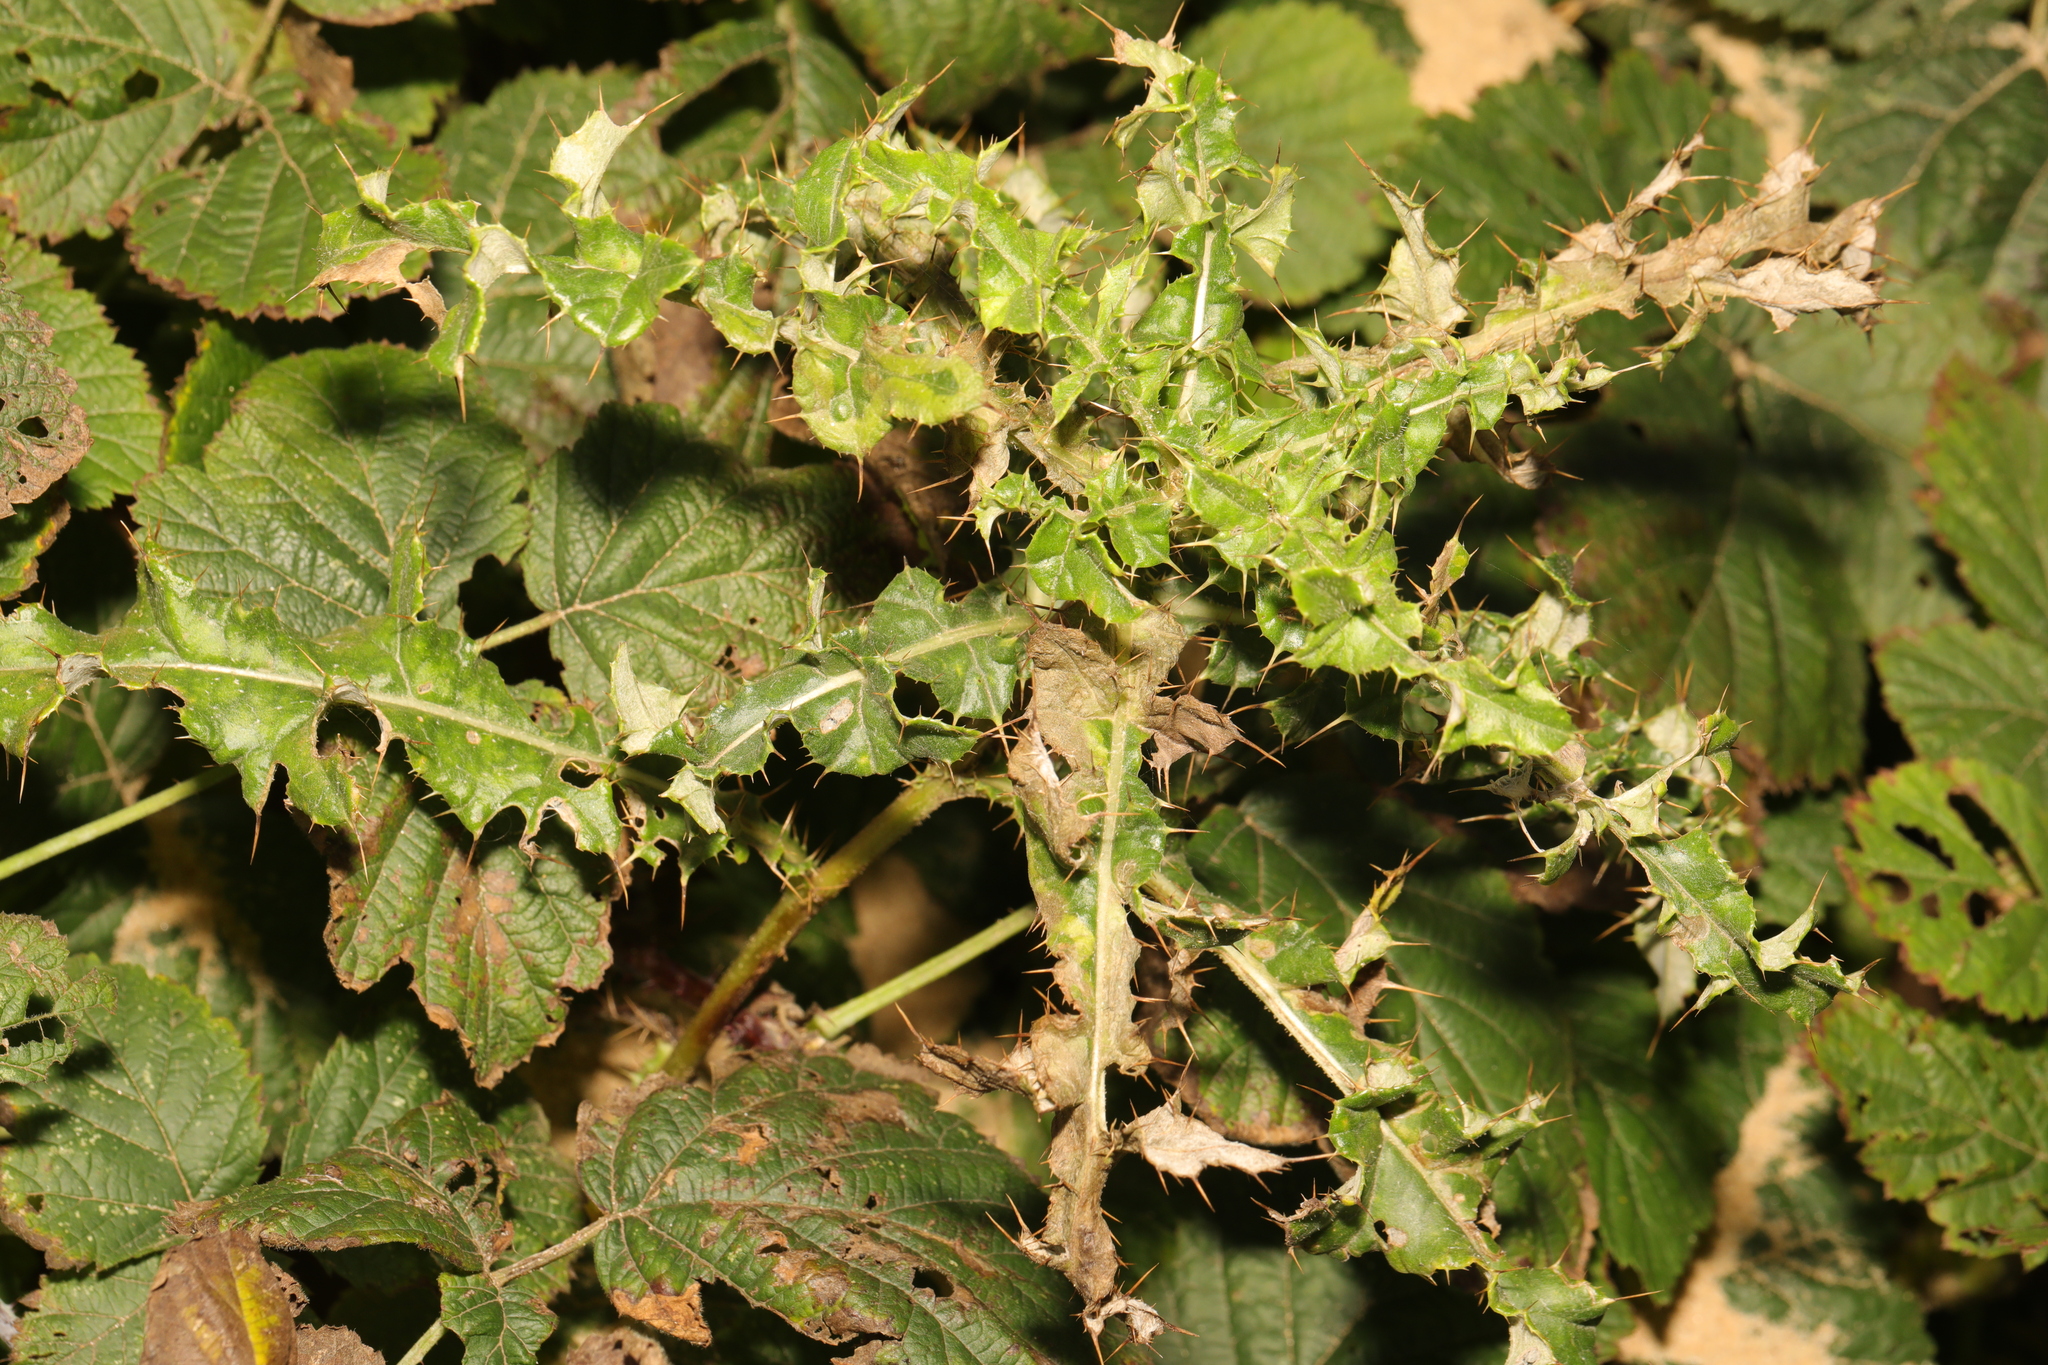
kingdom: Plantae
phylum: Tracheophyta
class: Magnoliopsida
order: Asterales
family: Asteraceae
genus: Cirsium
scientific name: Cirsium arvense
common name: Creeping thistle
